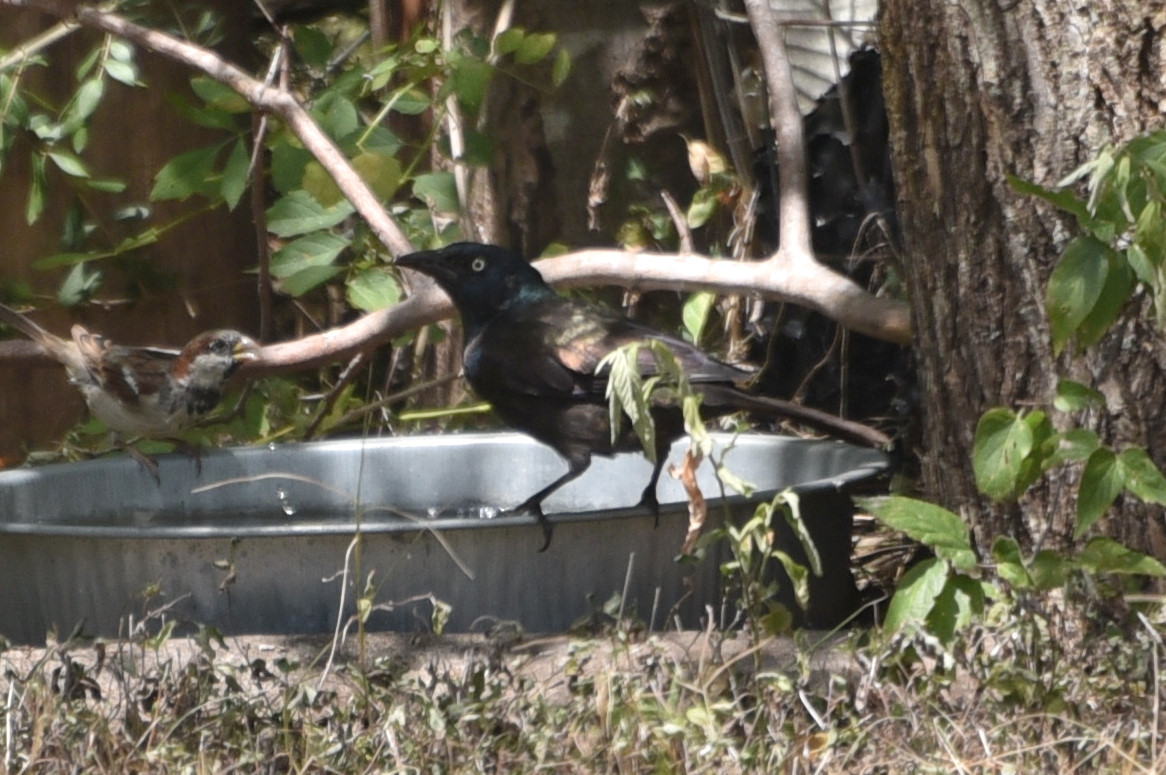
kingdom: Animalia
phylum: Chordata
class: Aves
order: Passeriformes
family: Icteridae
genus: Quiscalus
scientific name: Quiscalus quiscula
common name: Common grackle
